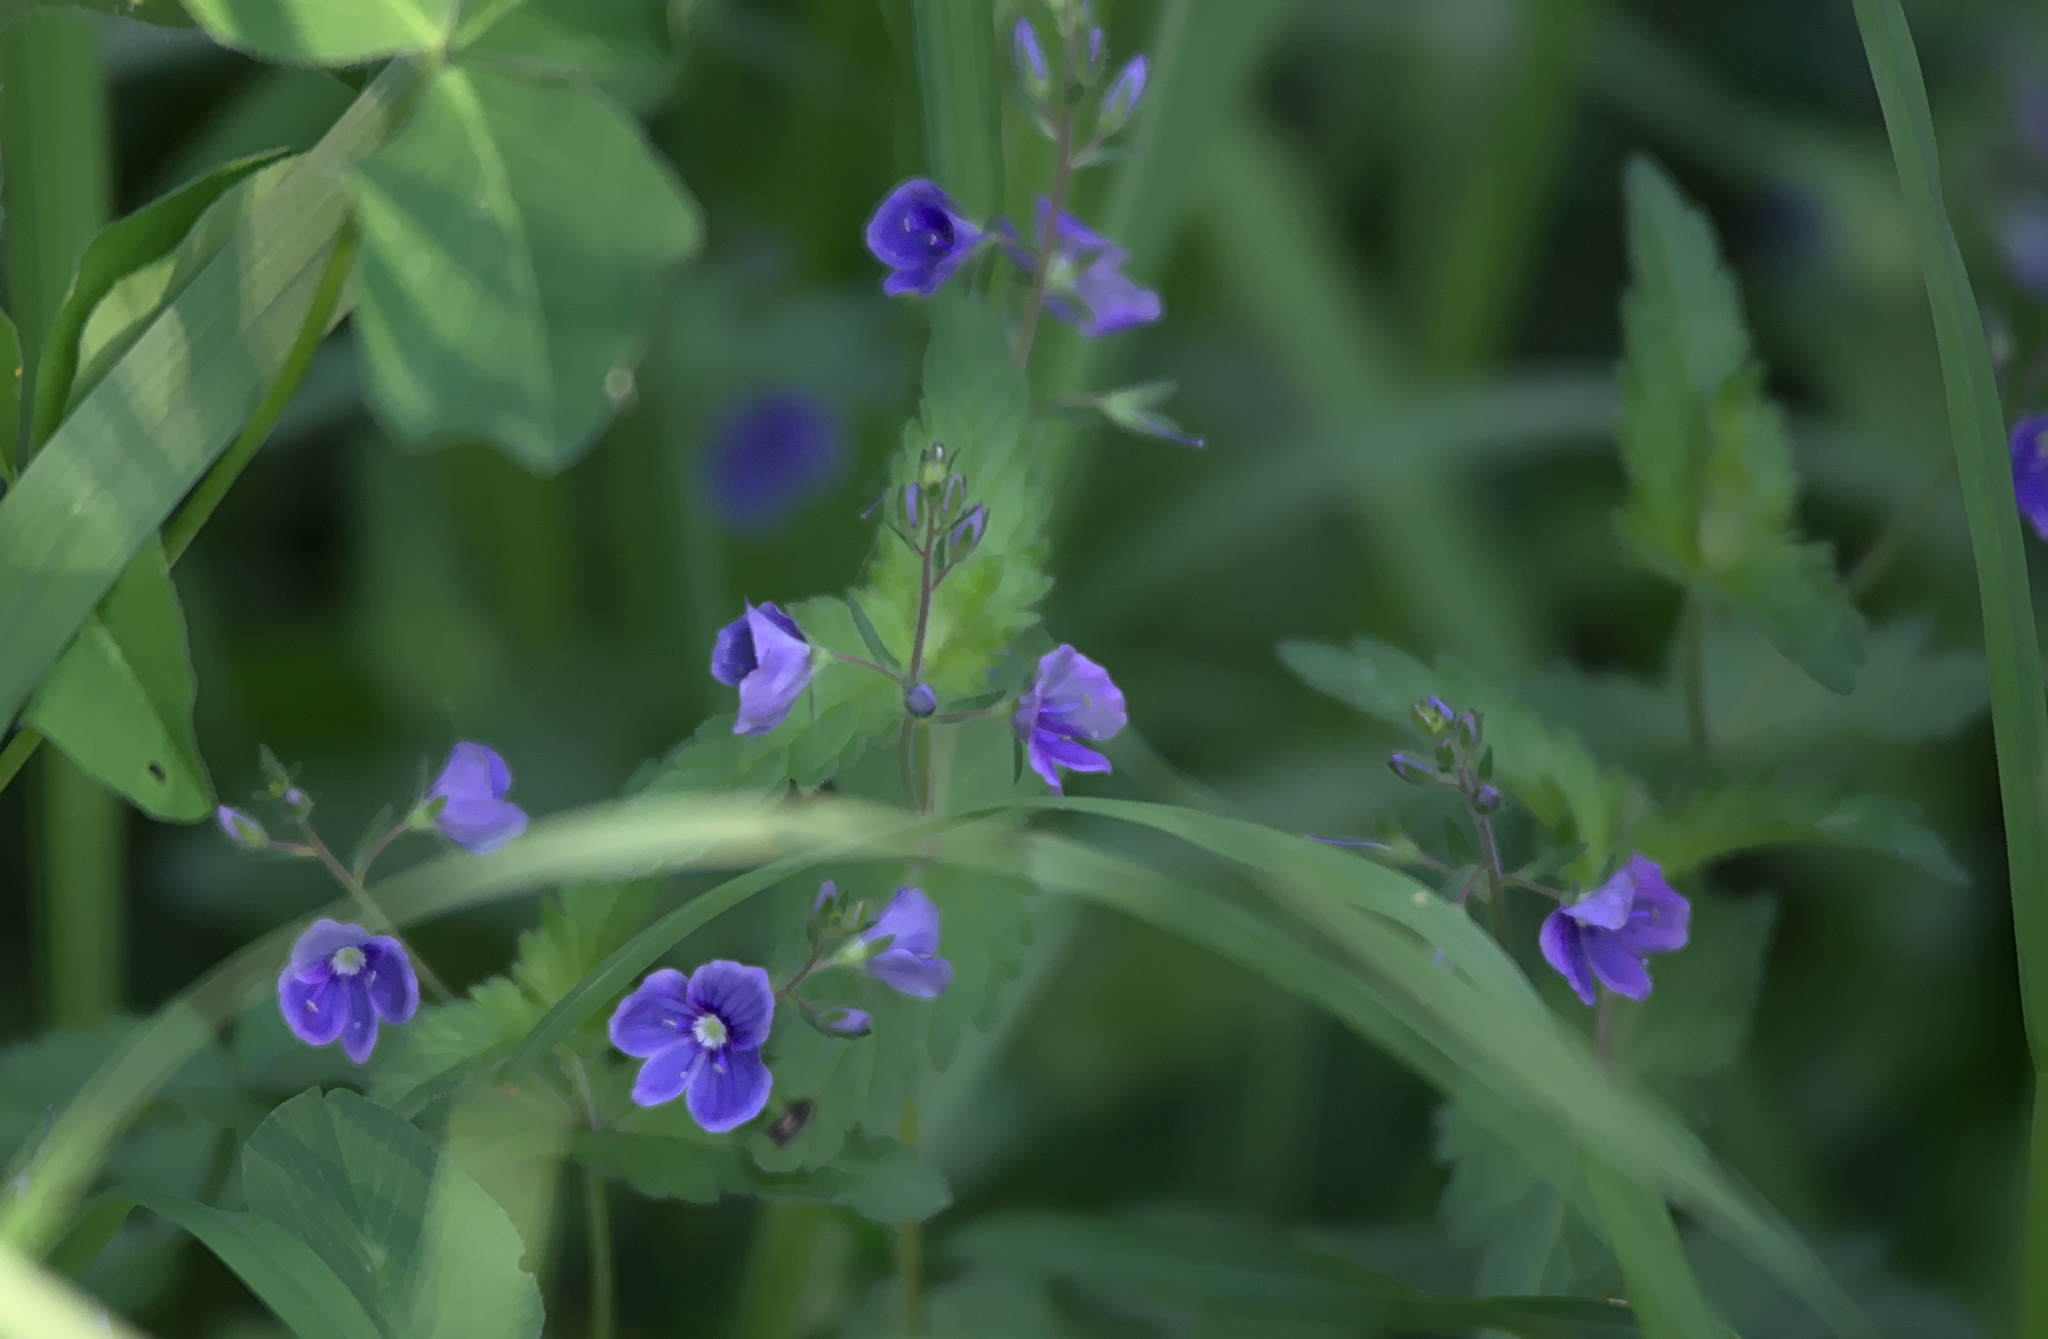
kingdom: Plantae
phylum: Tracheophyta
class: Magnoliopsida
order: Lamiales
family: Plantaginaceae
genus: Veronica
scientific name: Veronica chamaedrys
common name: Germander speedwell
